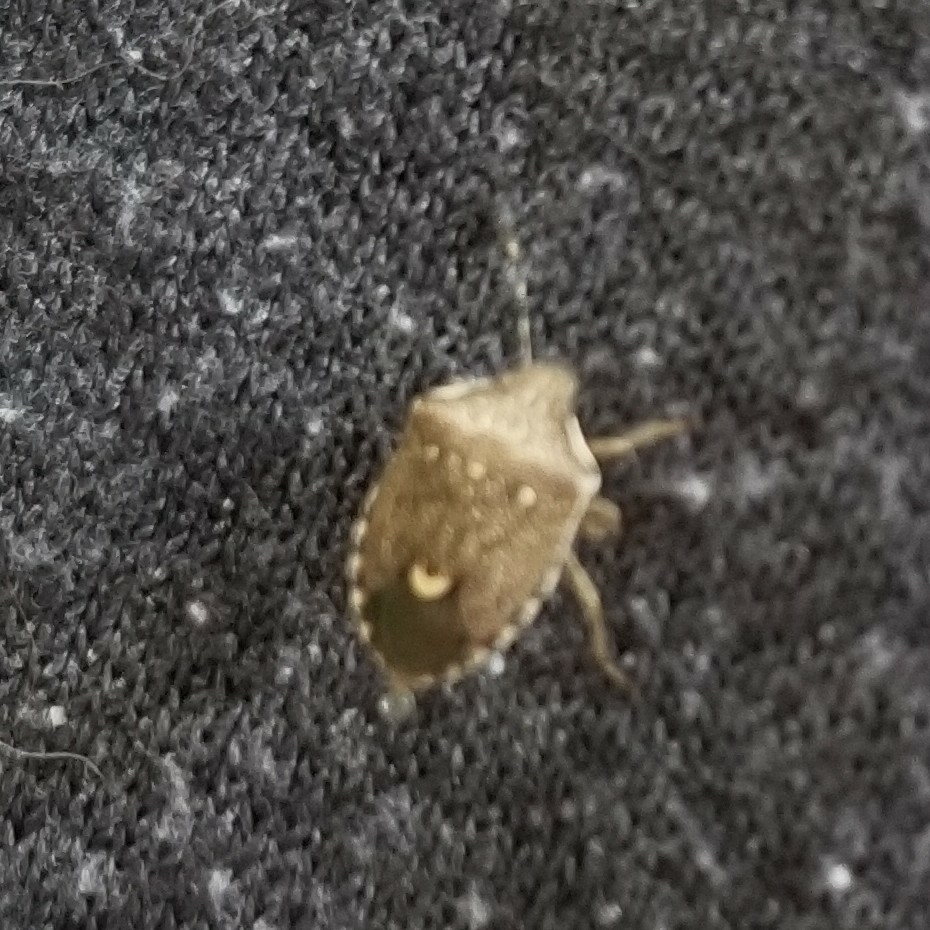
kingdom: Animalia
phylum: Arthropoda
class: Insecta
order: Hemiptera
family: Pentatomidae
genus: Holcostethus
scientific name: Holcostethus albipes
